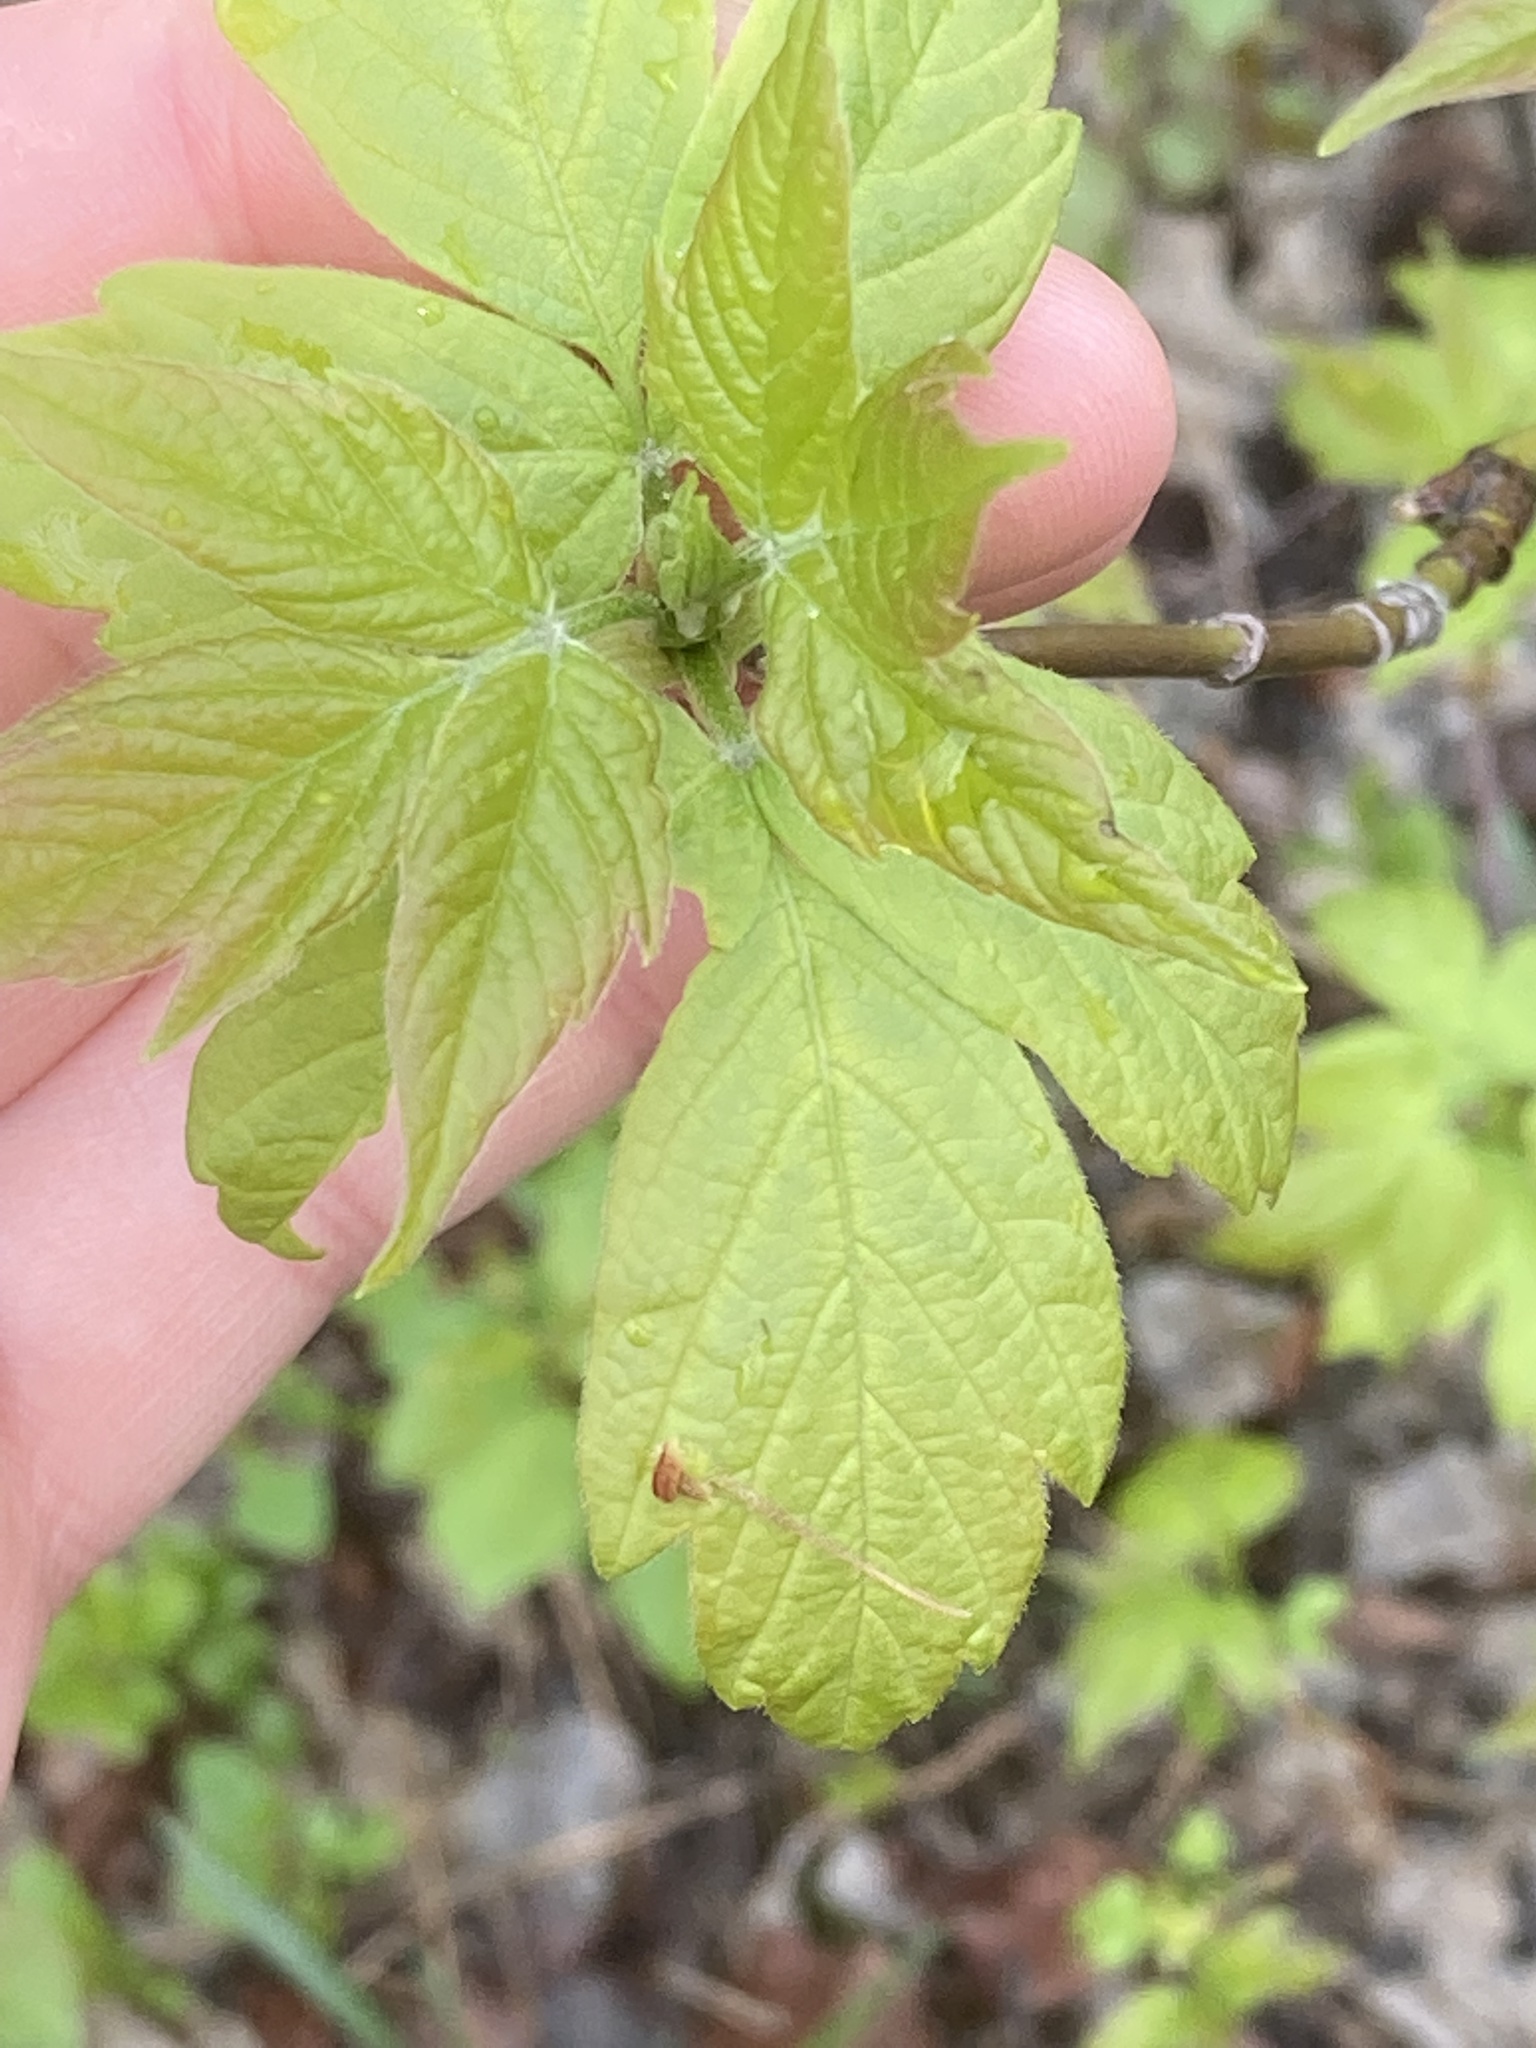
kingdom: Plantae
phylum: Tracheophyta
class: Magnoliopsida
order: Sapindales
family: Sapindaceae
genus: Acer
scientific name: Acer negundo
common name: Ashleaf maple
